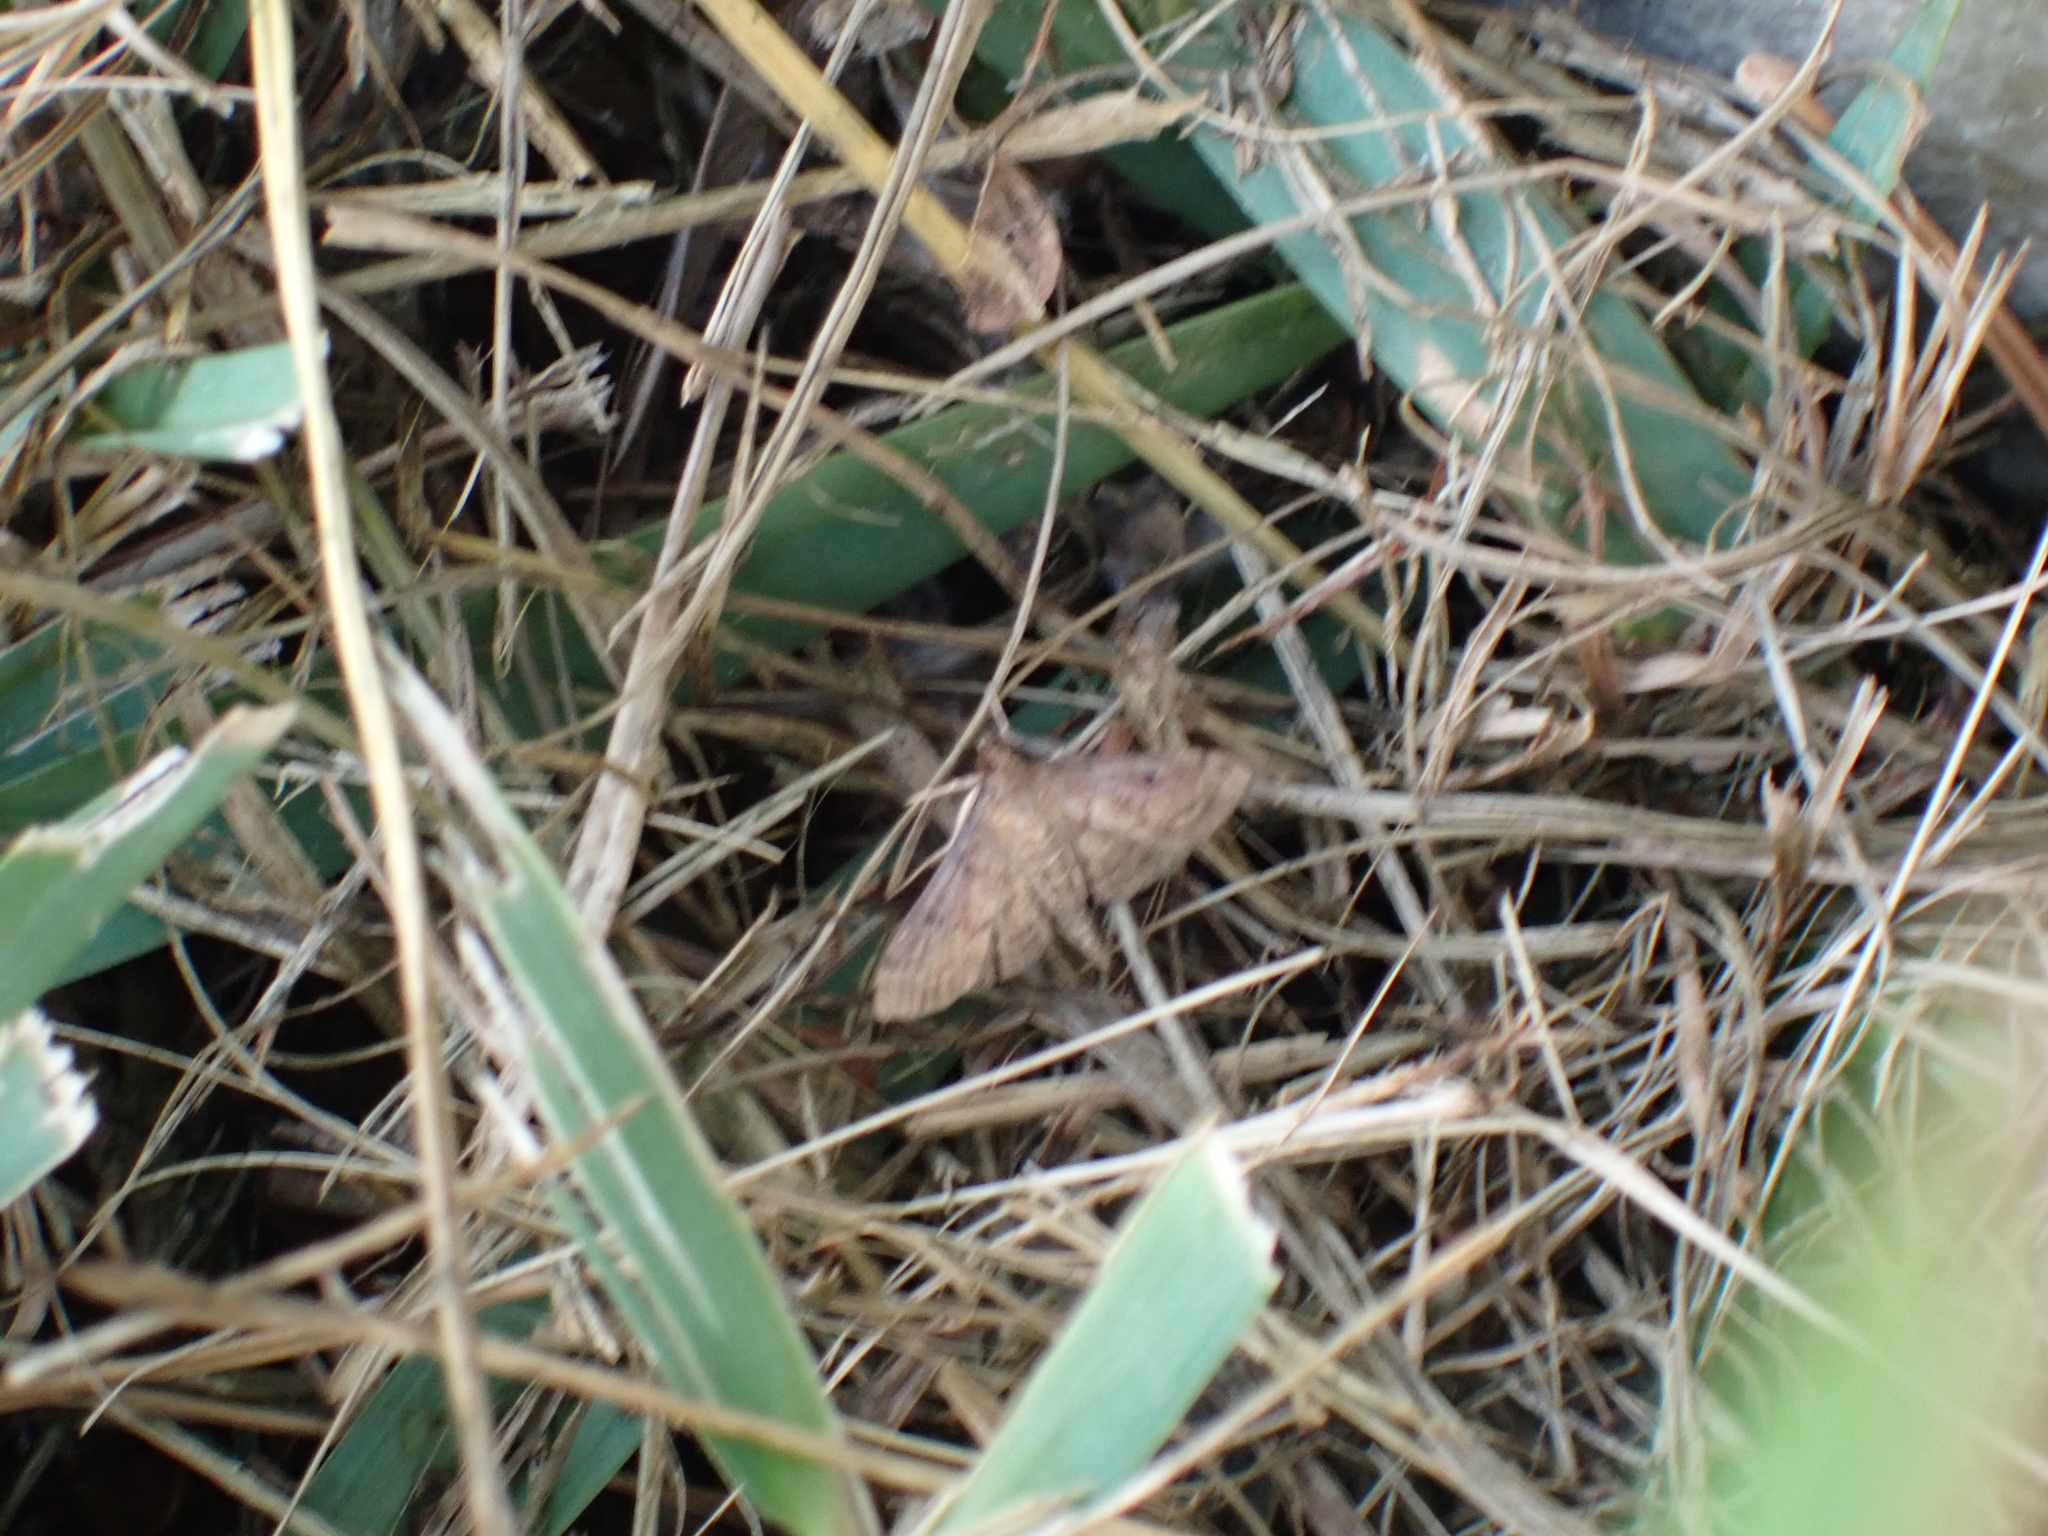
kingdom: Animalia
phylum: Arthropoda
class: Insecta
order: Lepidoptera
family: Crambidae
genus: Herpetogramma
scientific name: Herpetogramma phaeopteralis
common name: Dusky herpetogramma moth
